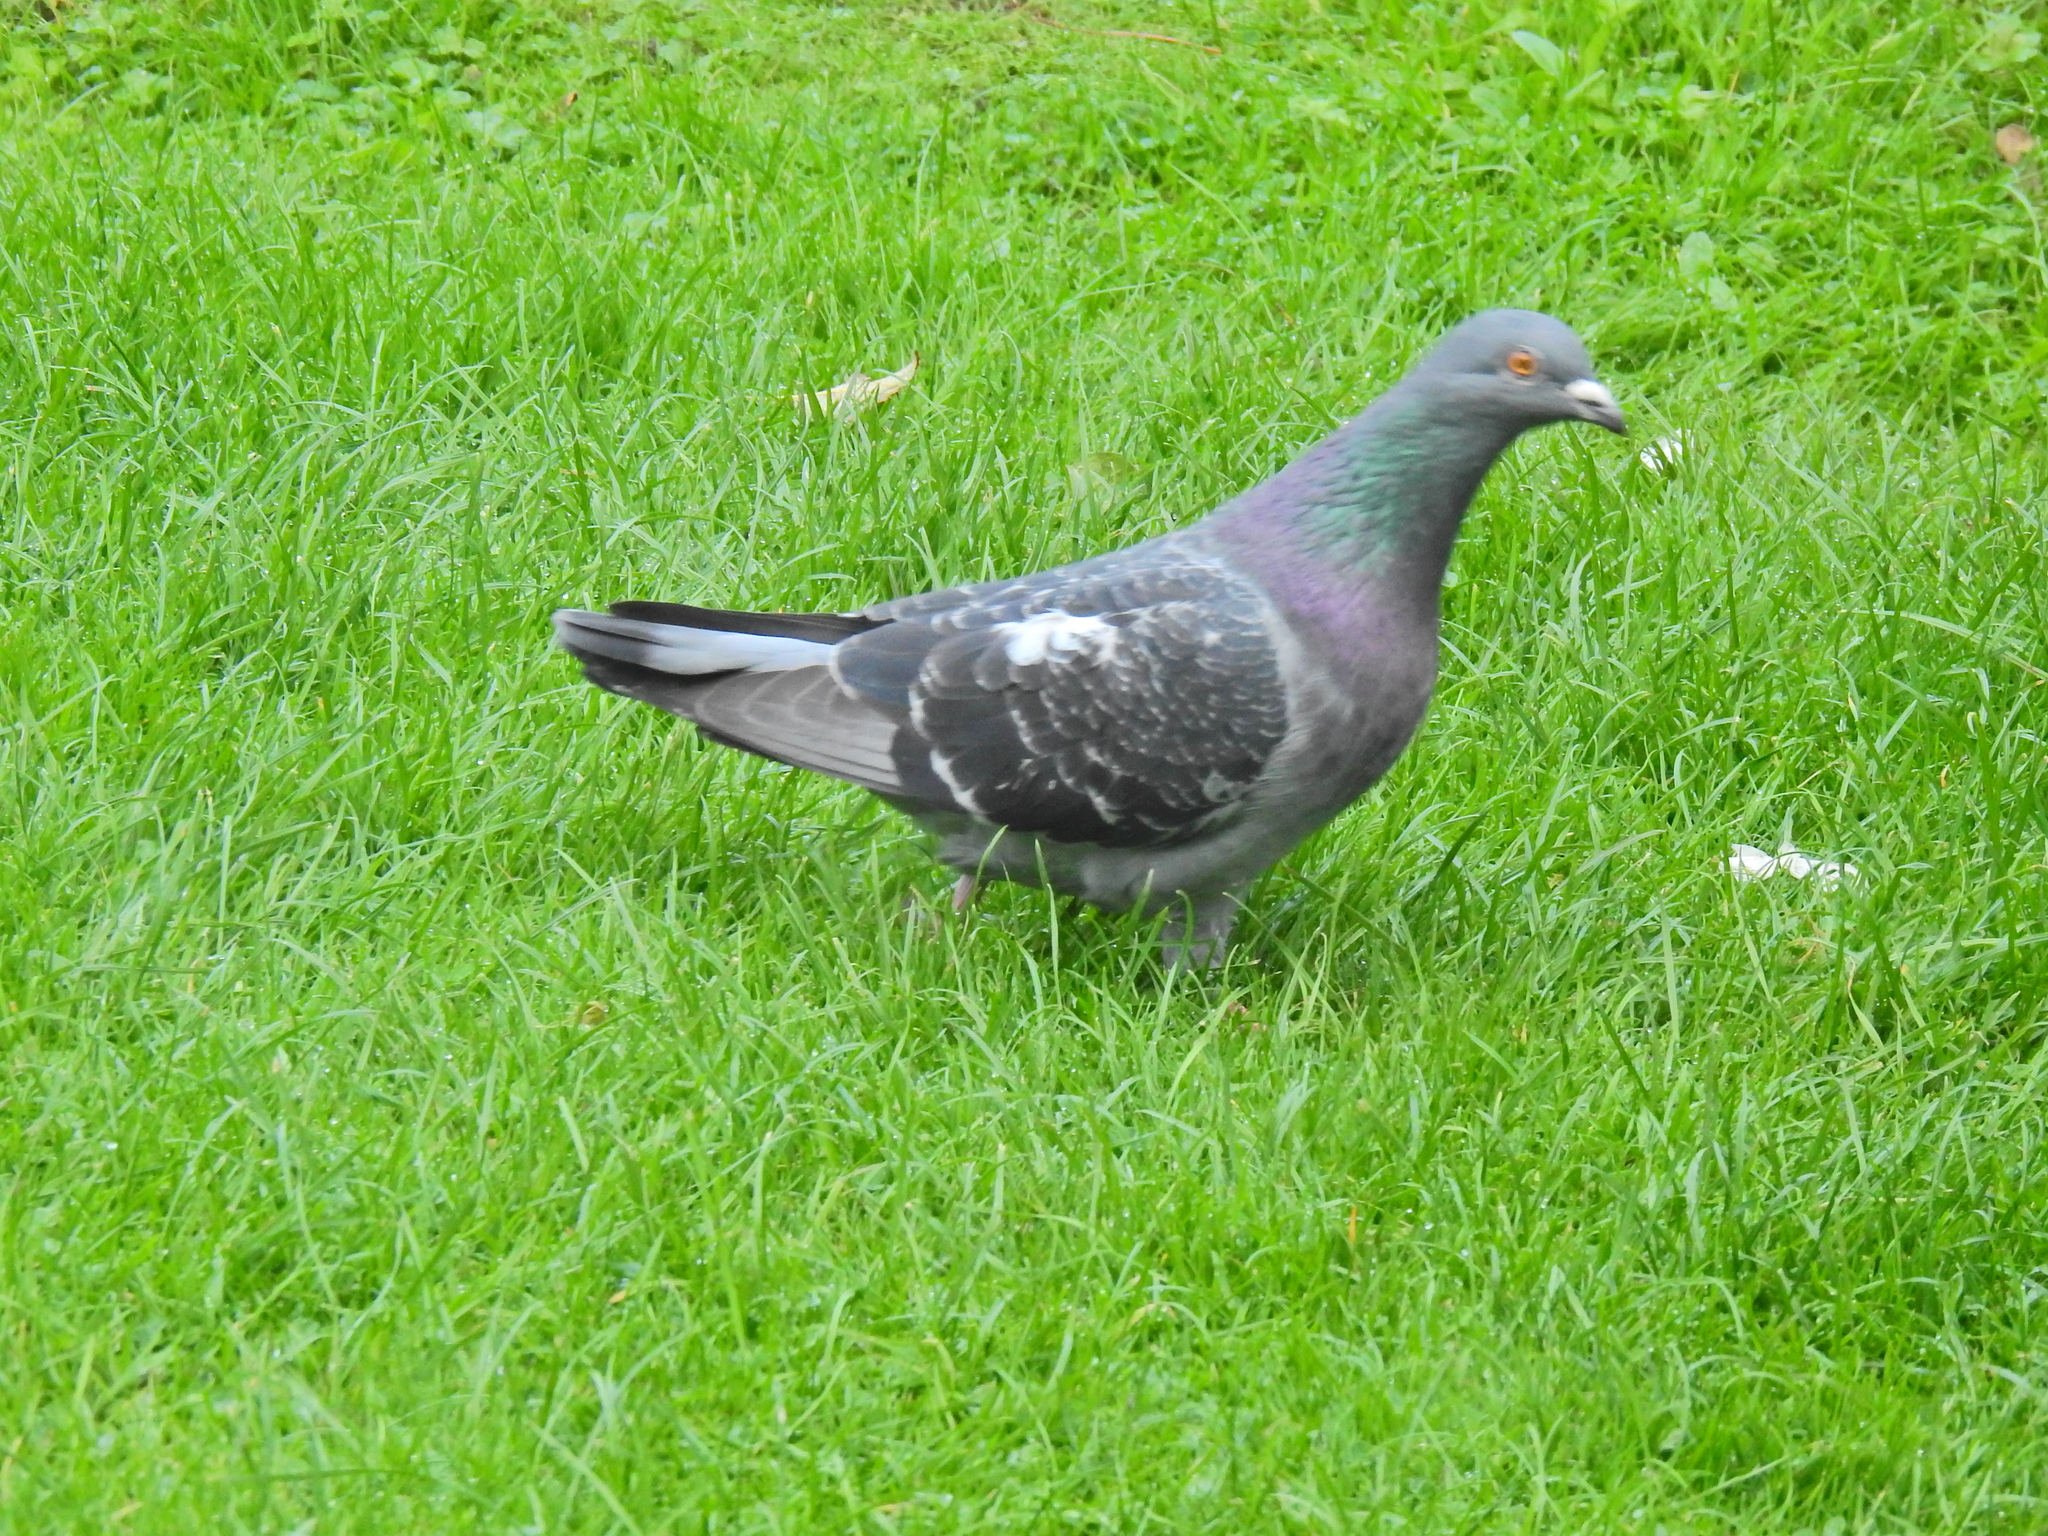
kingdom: Animalia
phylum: Chordata
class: Aves
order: Columbiformes
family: Columbidae
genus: Columba
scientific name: Columba livia
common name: Rock pigeon
